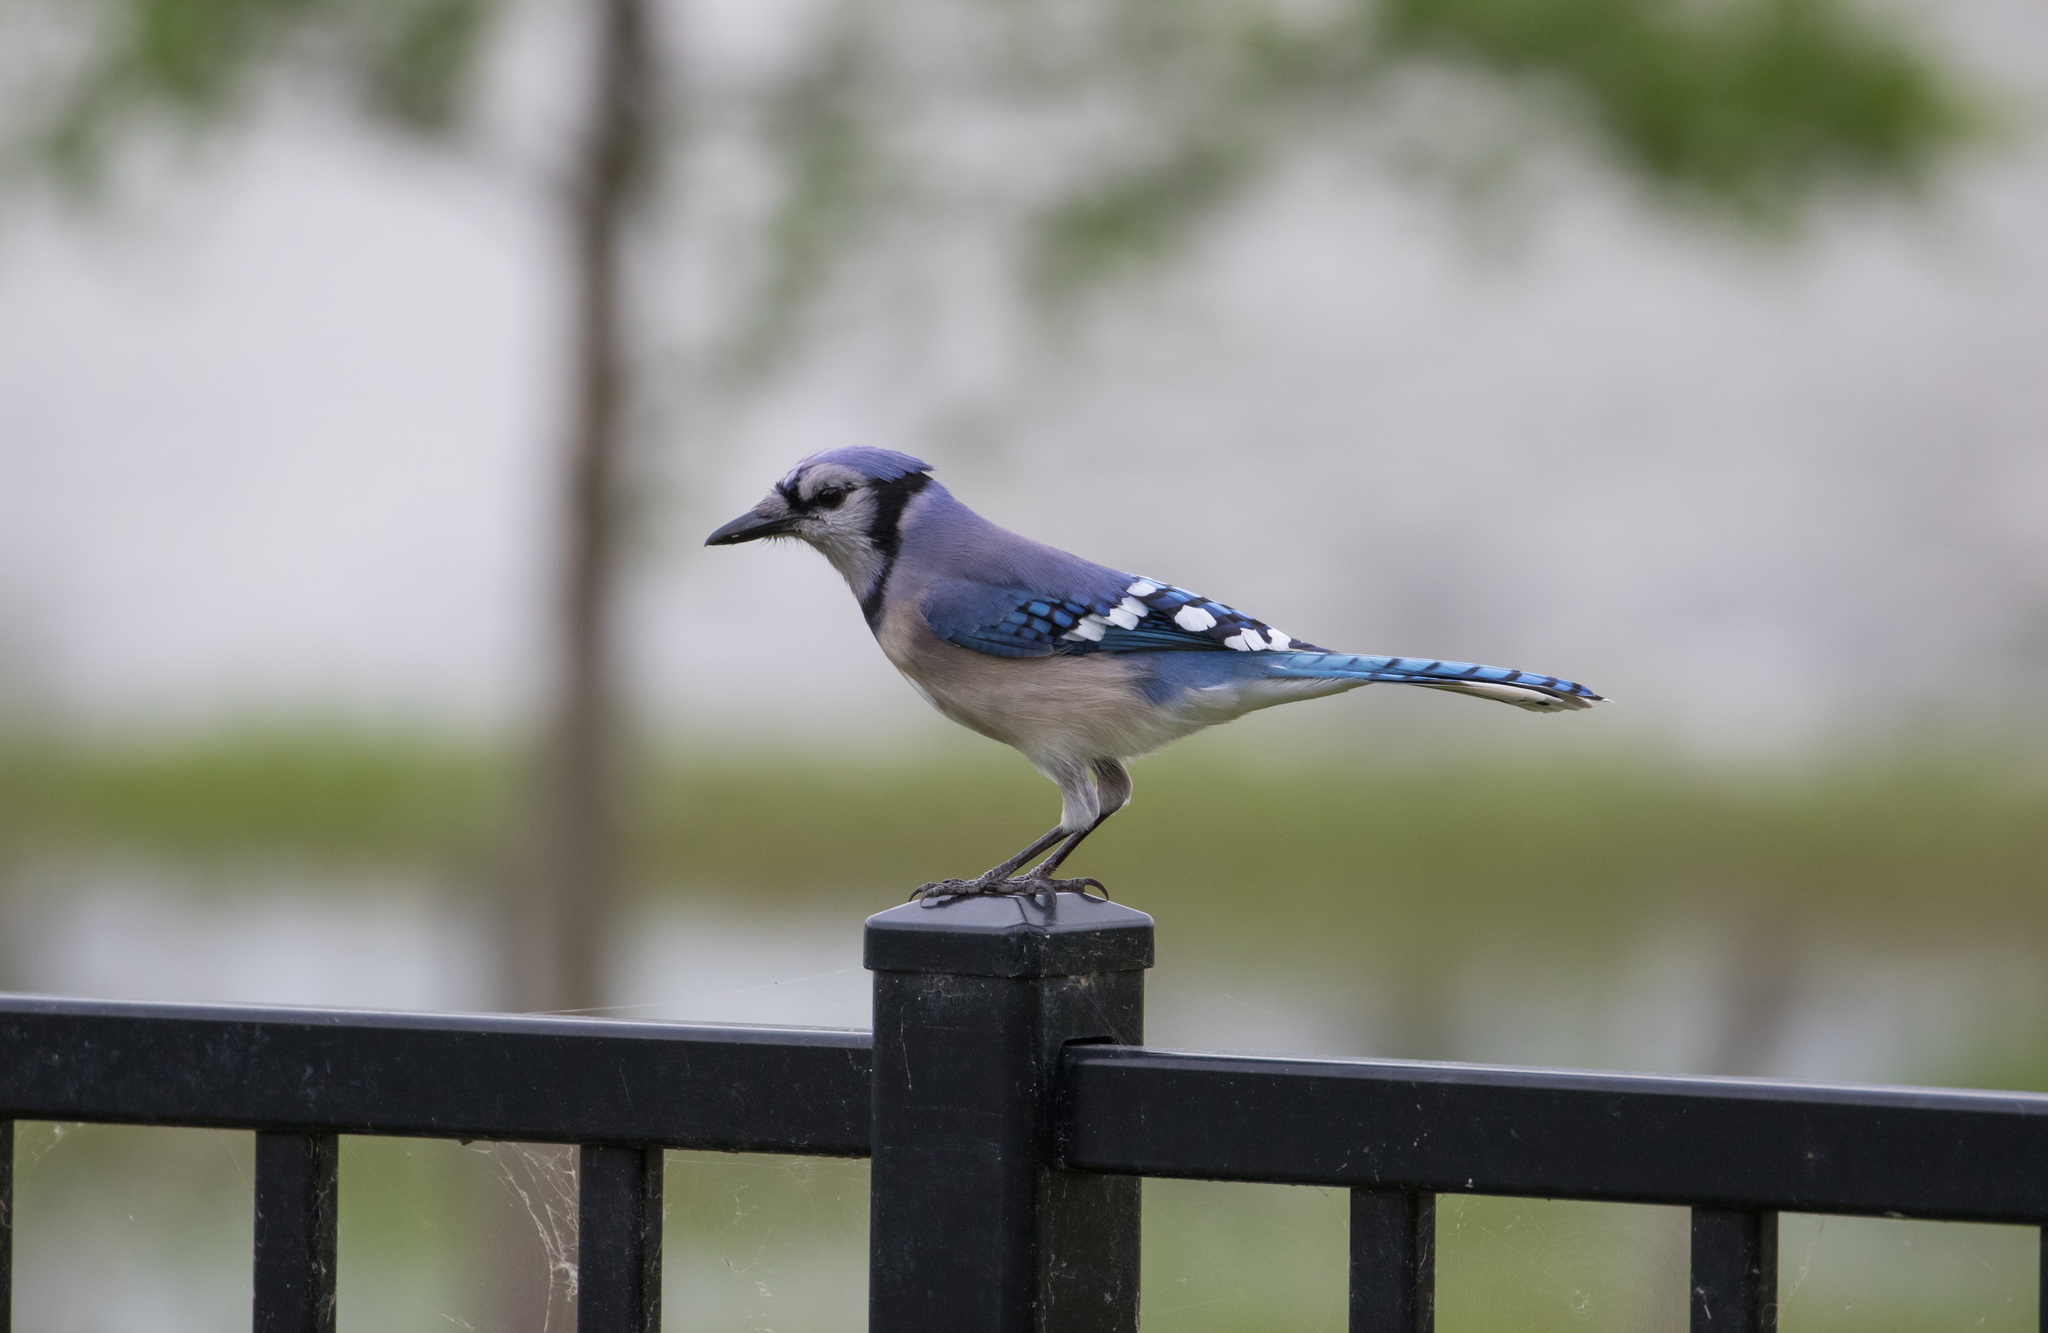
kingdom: Animalia
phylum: Chordata
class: Aves
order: Passeriformes
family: Corvidae
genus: Cyanocitta
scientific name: Cyanocitta cristata
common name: Blue jay
